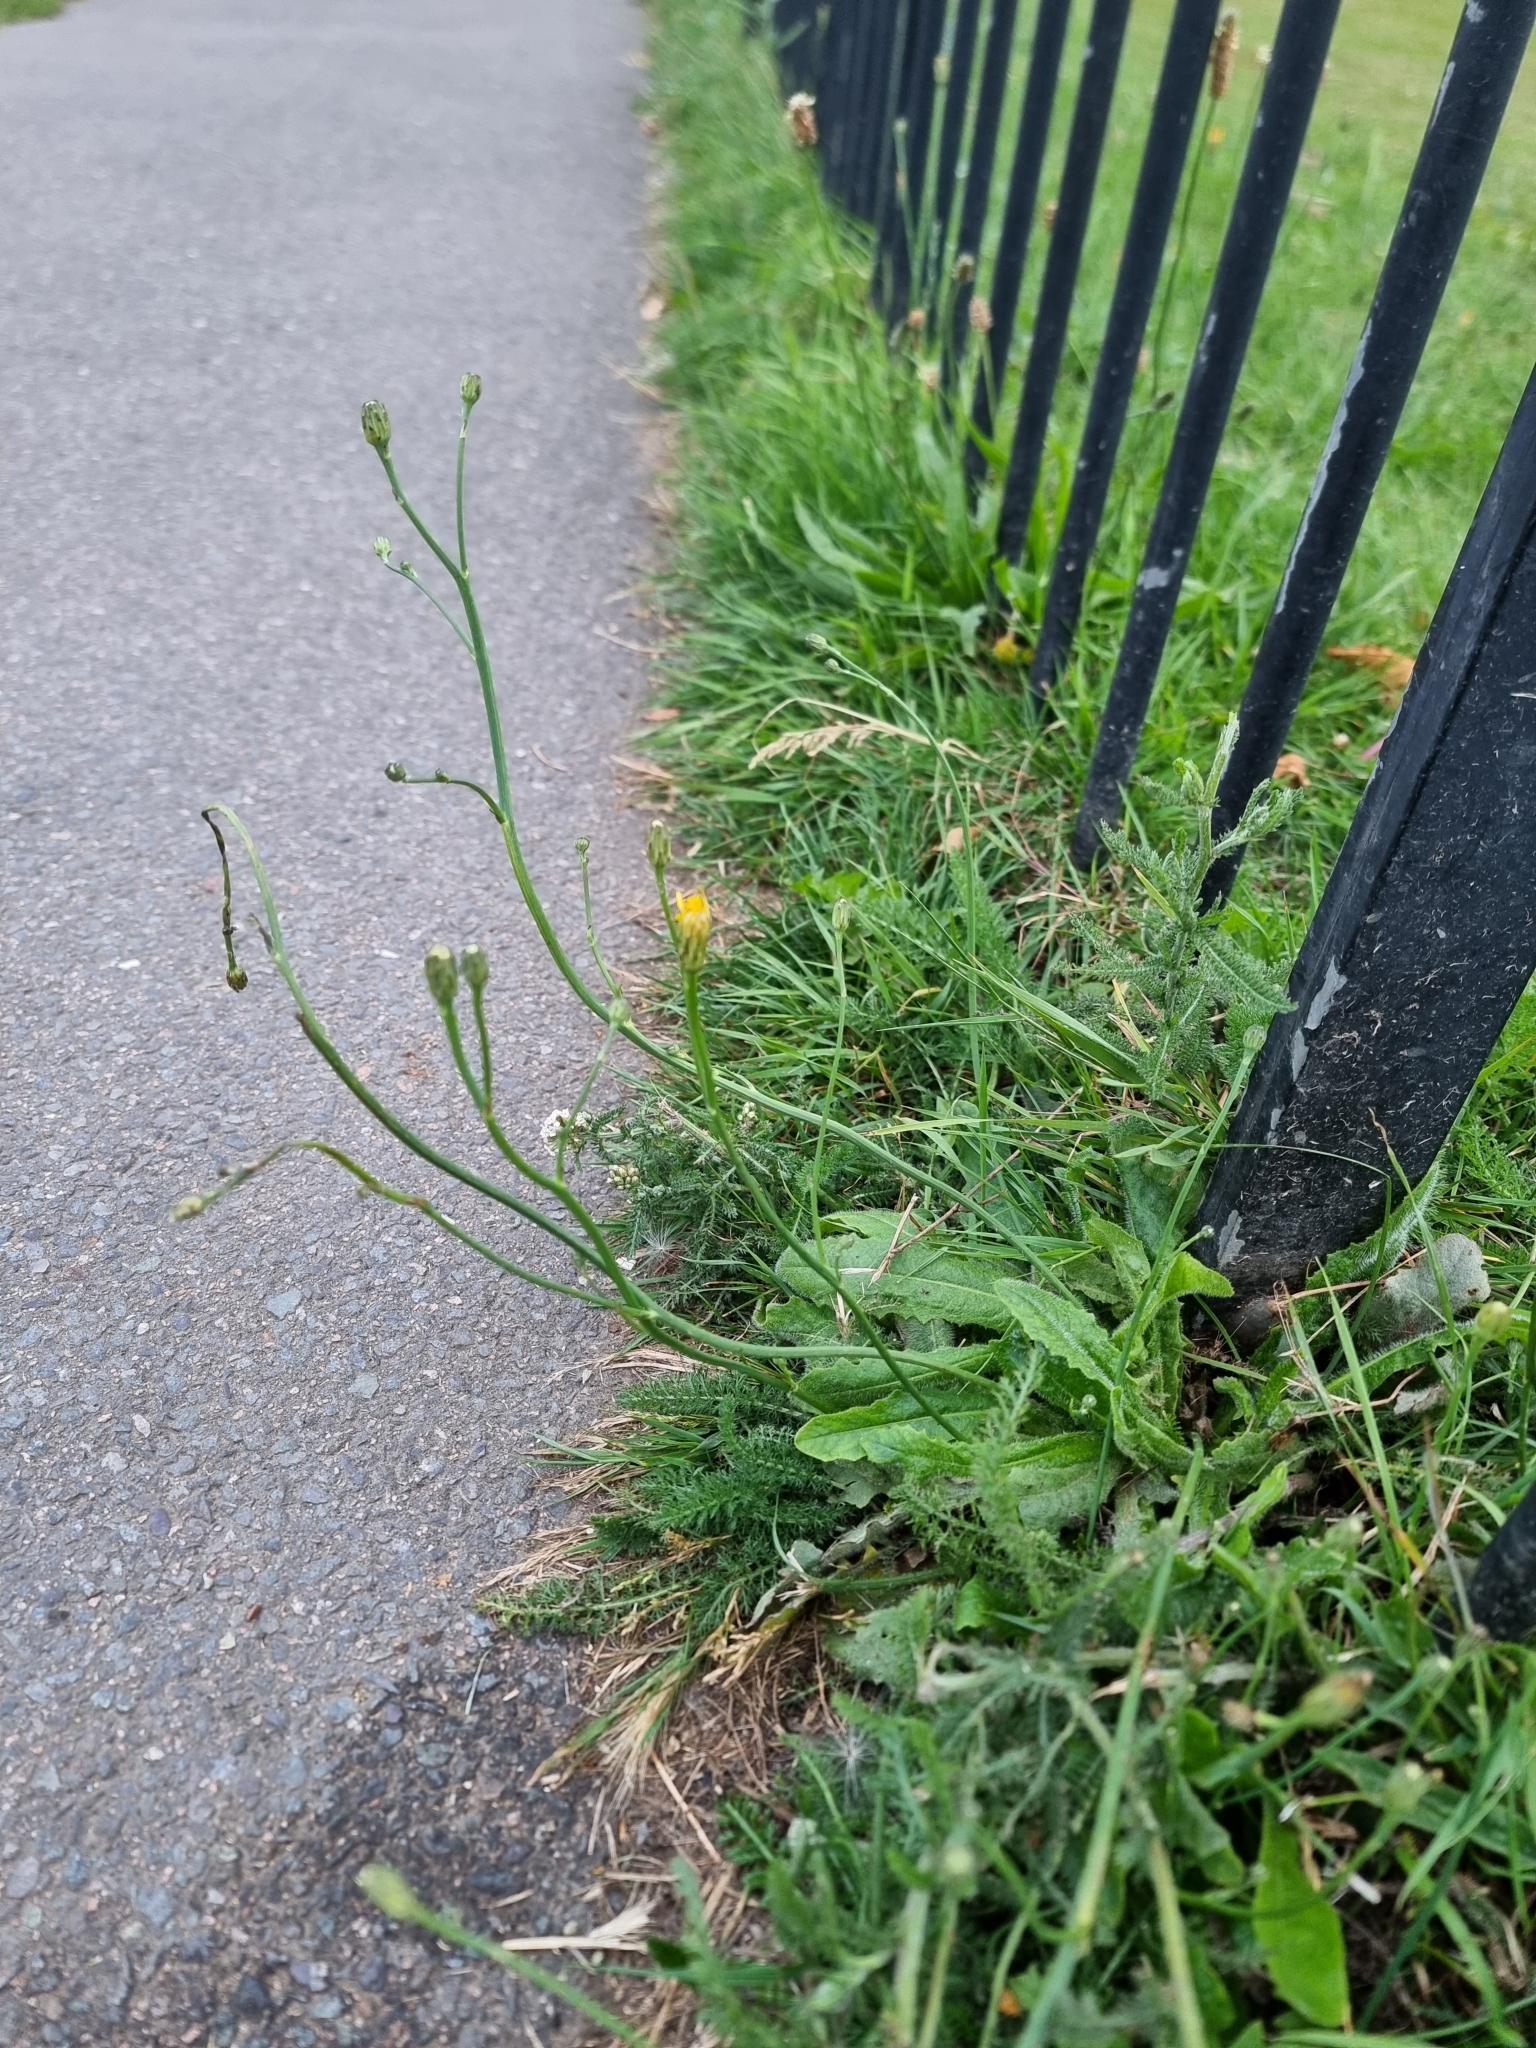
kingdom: Plantae
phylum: Tracheophyta
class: Magnoliopsida
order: Asterales
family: Asteraceae
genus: Hypochaeris
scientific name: Hypochaeris radicata
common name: Flatweed
